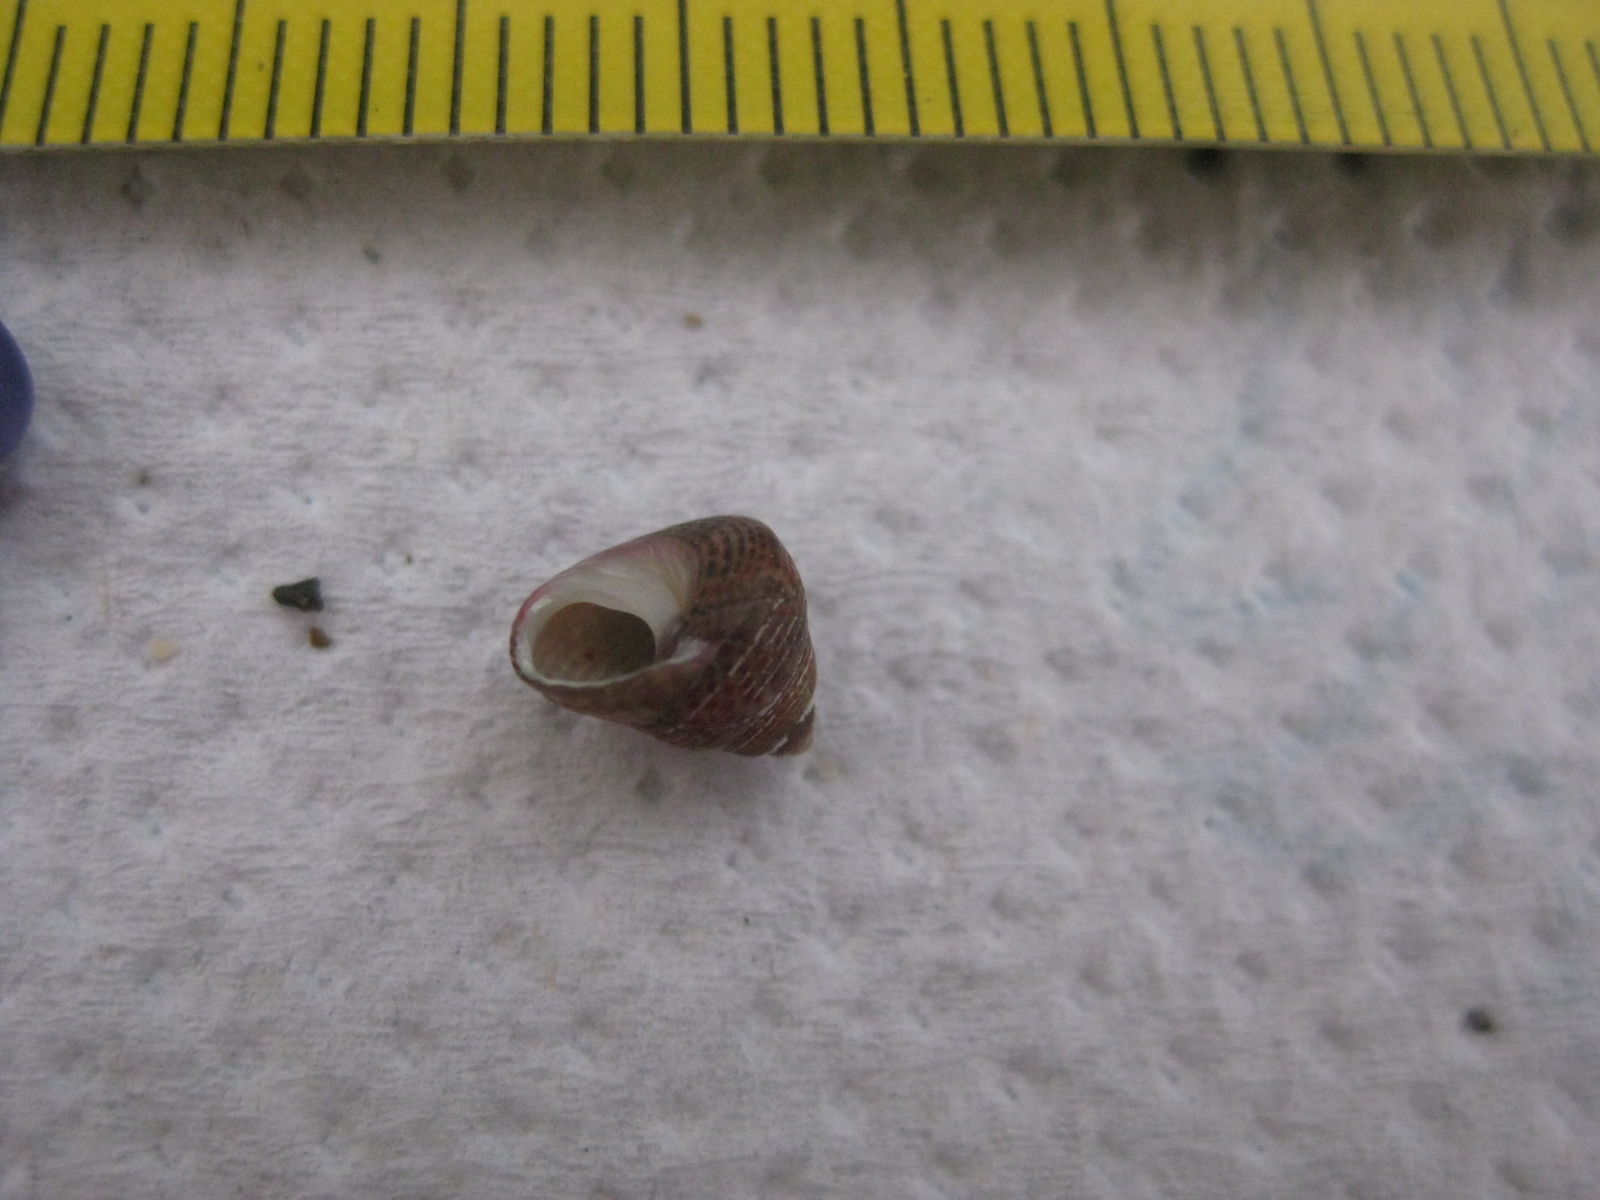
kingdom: Animalia
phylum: Mollusca
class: Gastropoda
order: Trochida
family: Trochidae
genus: Micrelenchus
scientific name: Micrelenchus sanguineus
